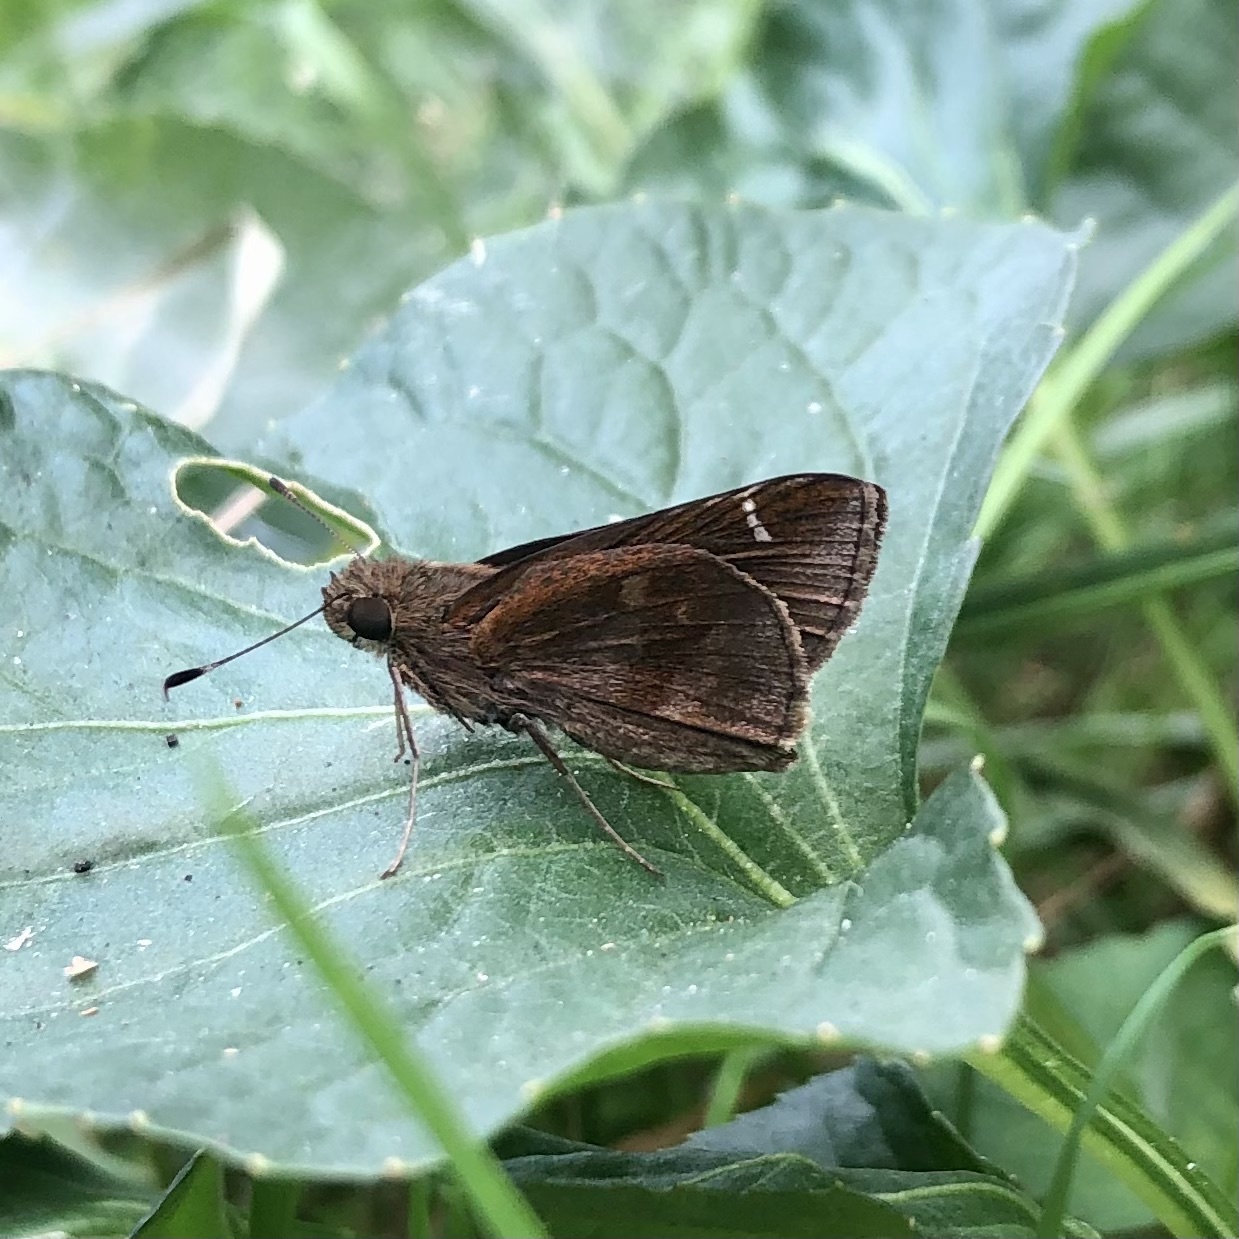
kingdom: Animalia
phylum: Arthropoda
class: Insecta
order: Lepidoptera
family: Hesperiidae
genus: Lerema
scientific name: Lerema accius
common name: Clouded skipper
